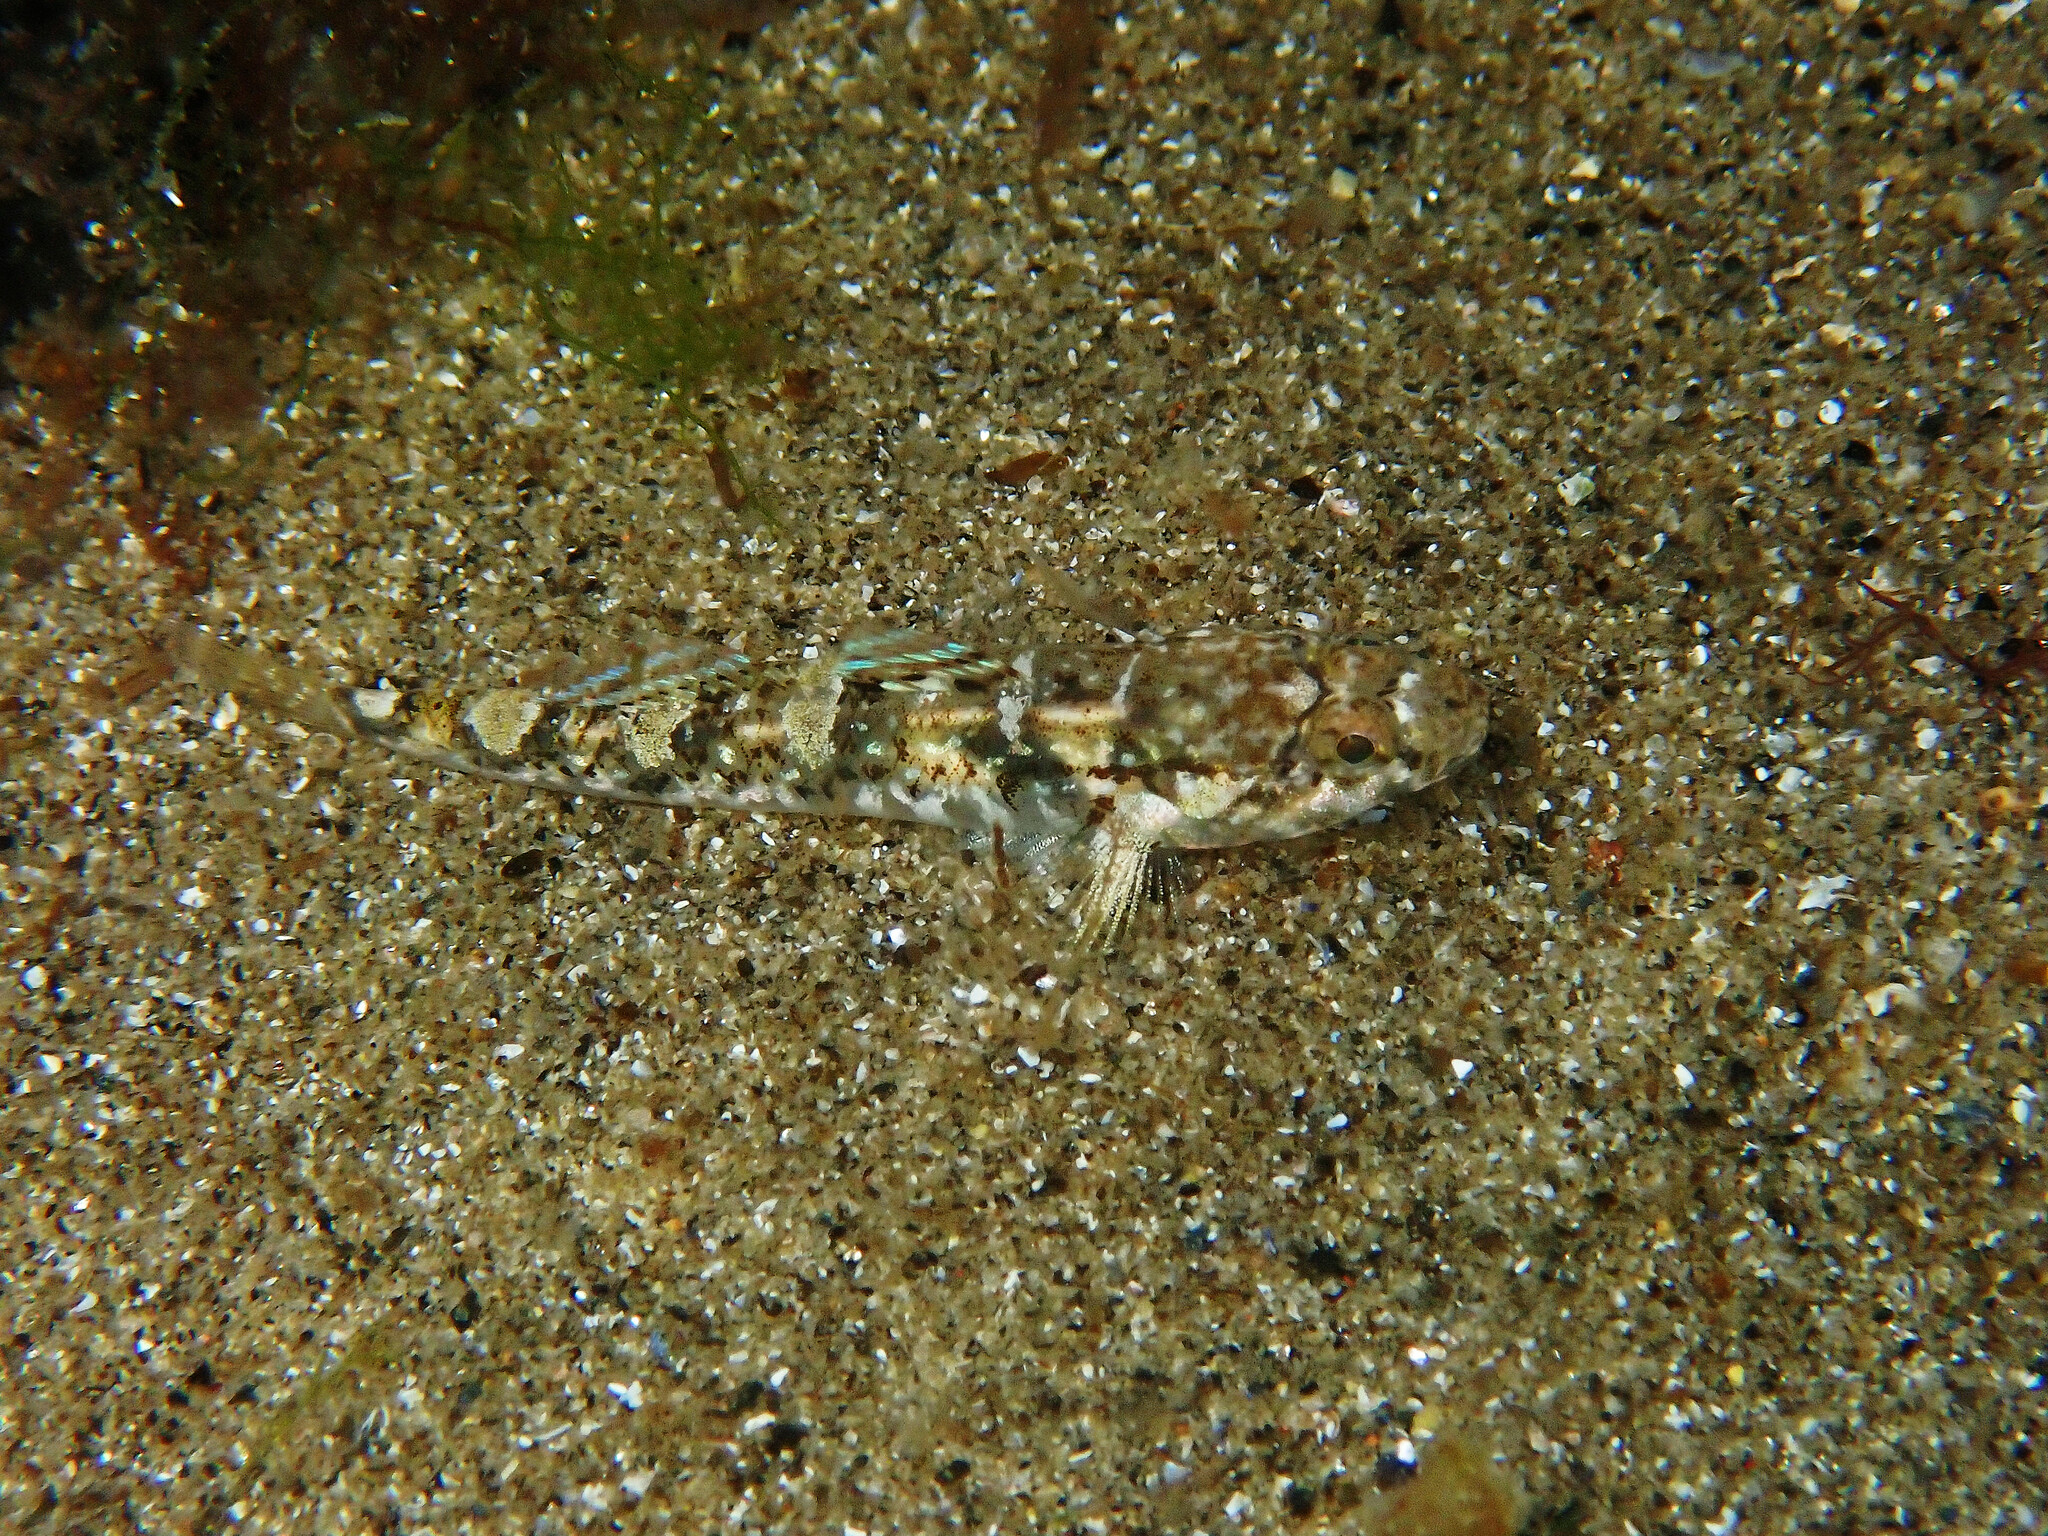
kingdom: Animalia
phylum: Chordata
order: Perciformes
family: Gobiidae
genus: Pomatoschistus
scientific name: Pomatoschistus pictus
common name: Painted goby
